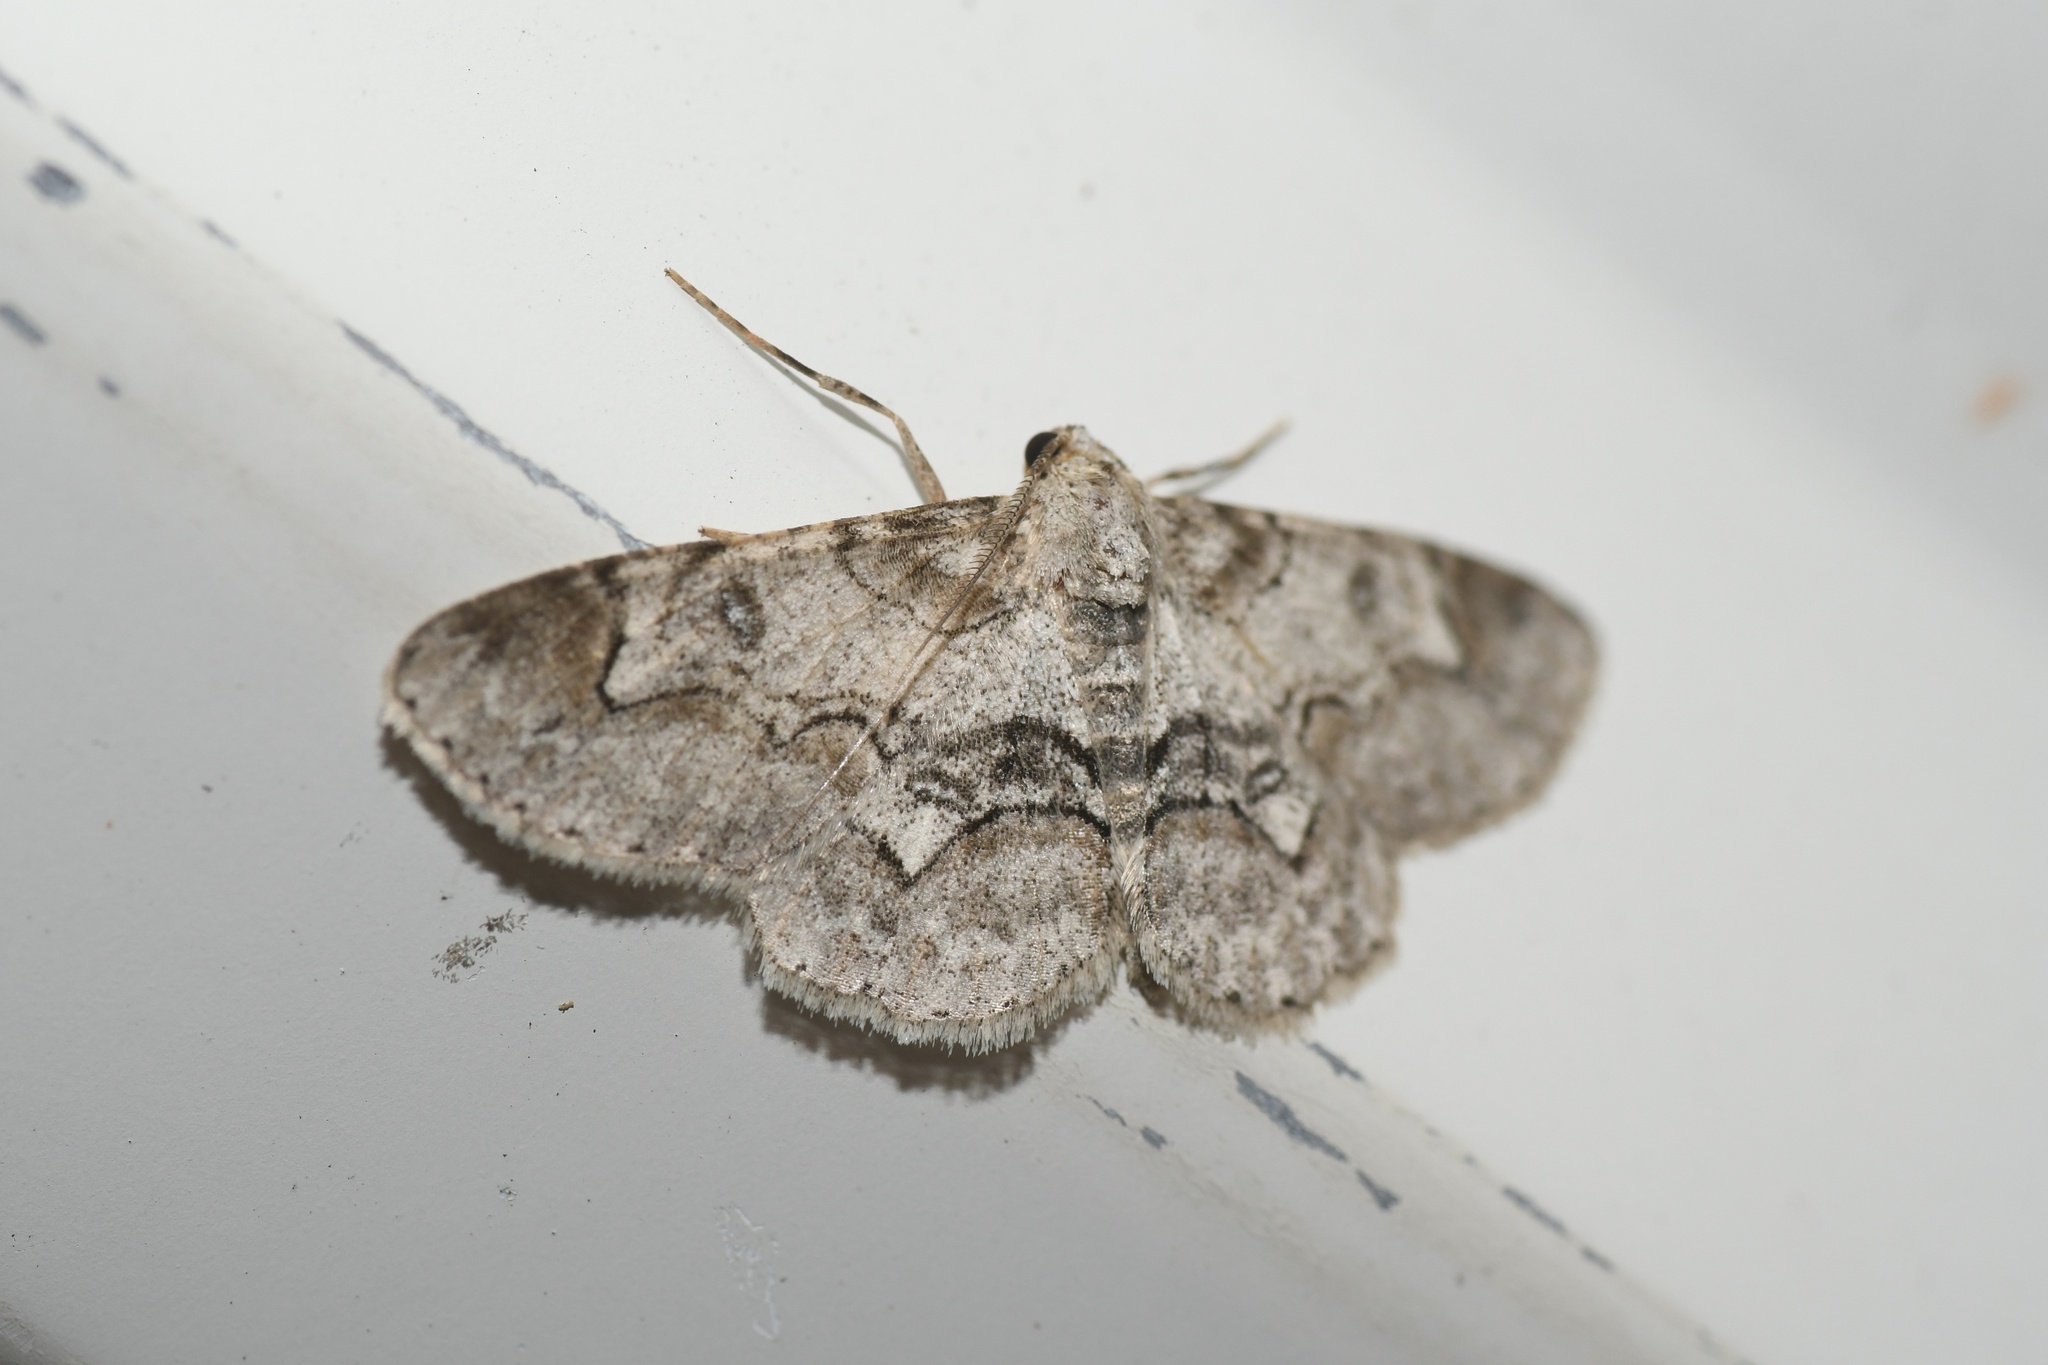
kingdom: Animalia
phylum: Arthropoda
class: Insecta
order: Lepidoptera
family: Geometridae
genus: Iridopsis
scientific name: Iridopsis larvaria
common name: Bent-line gray
